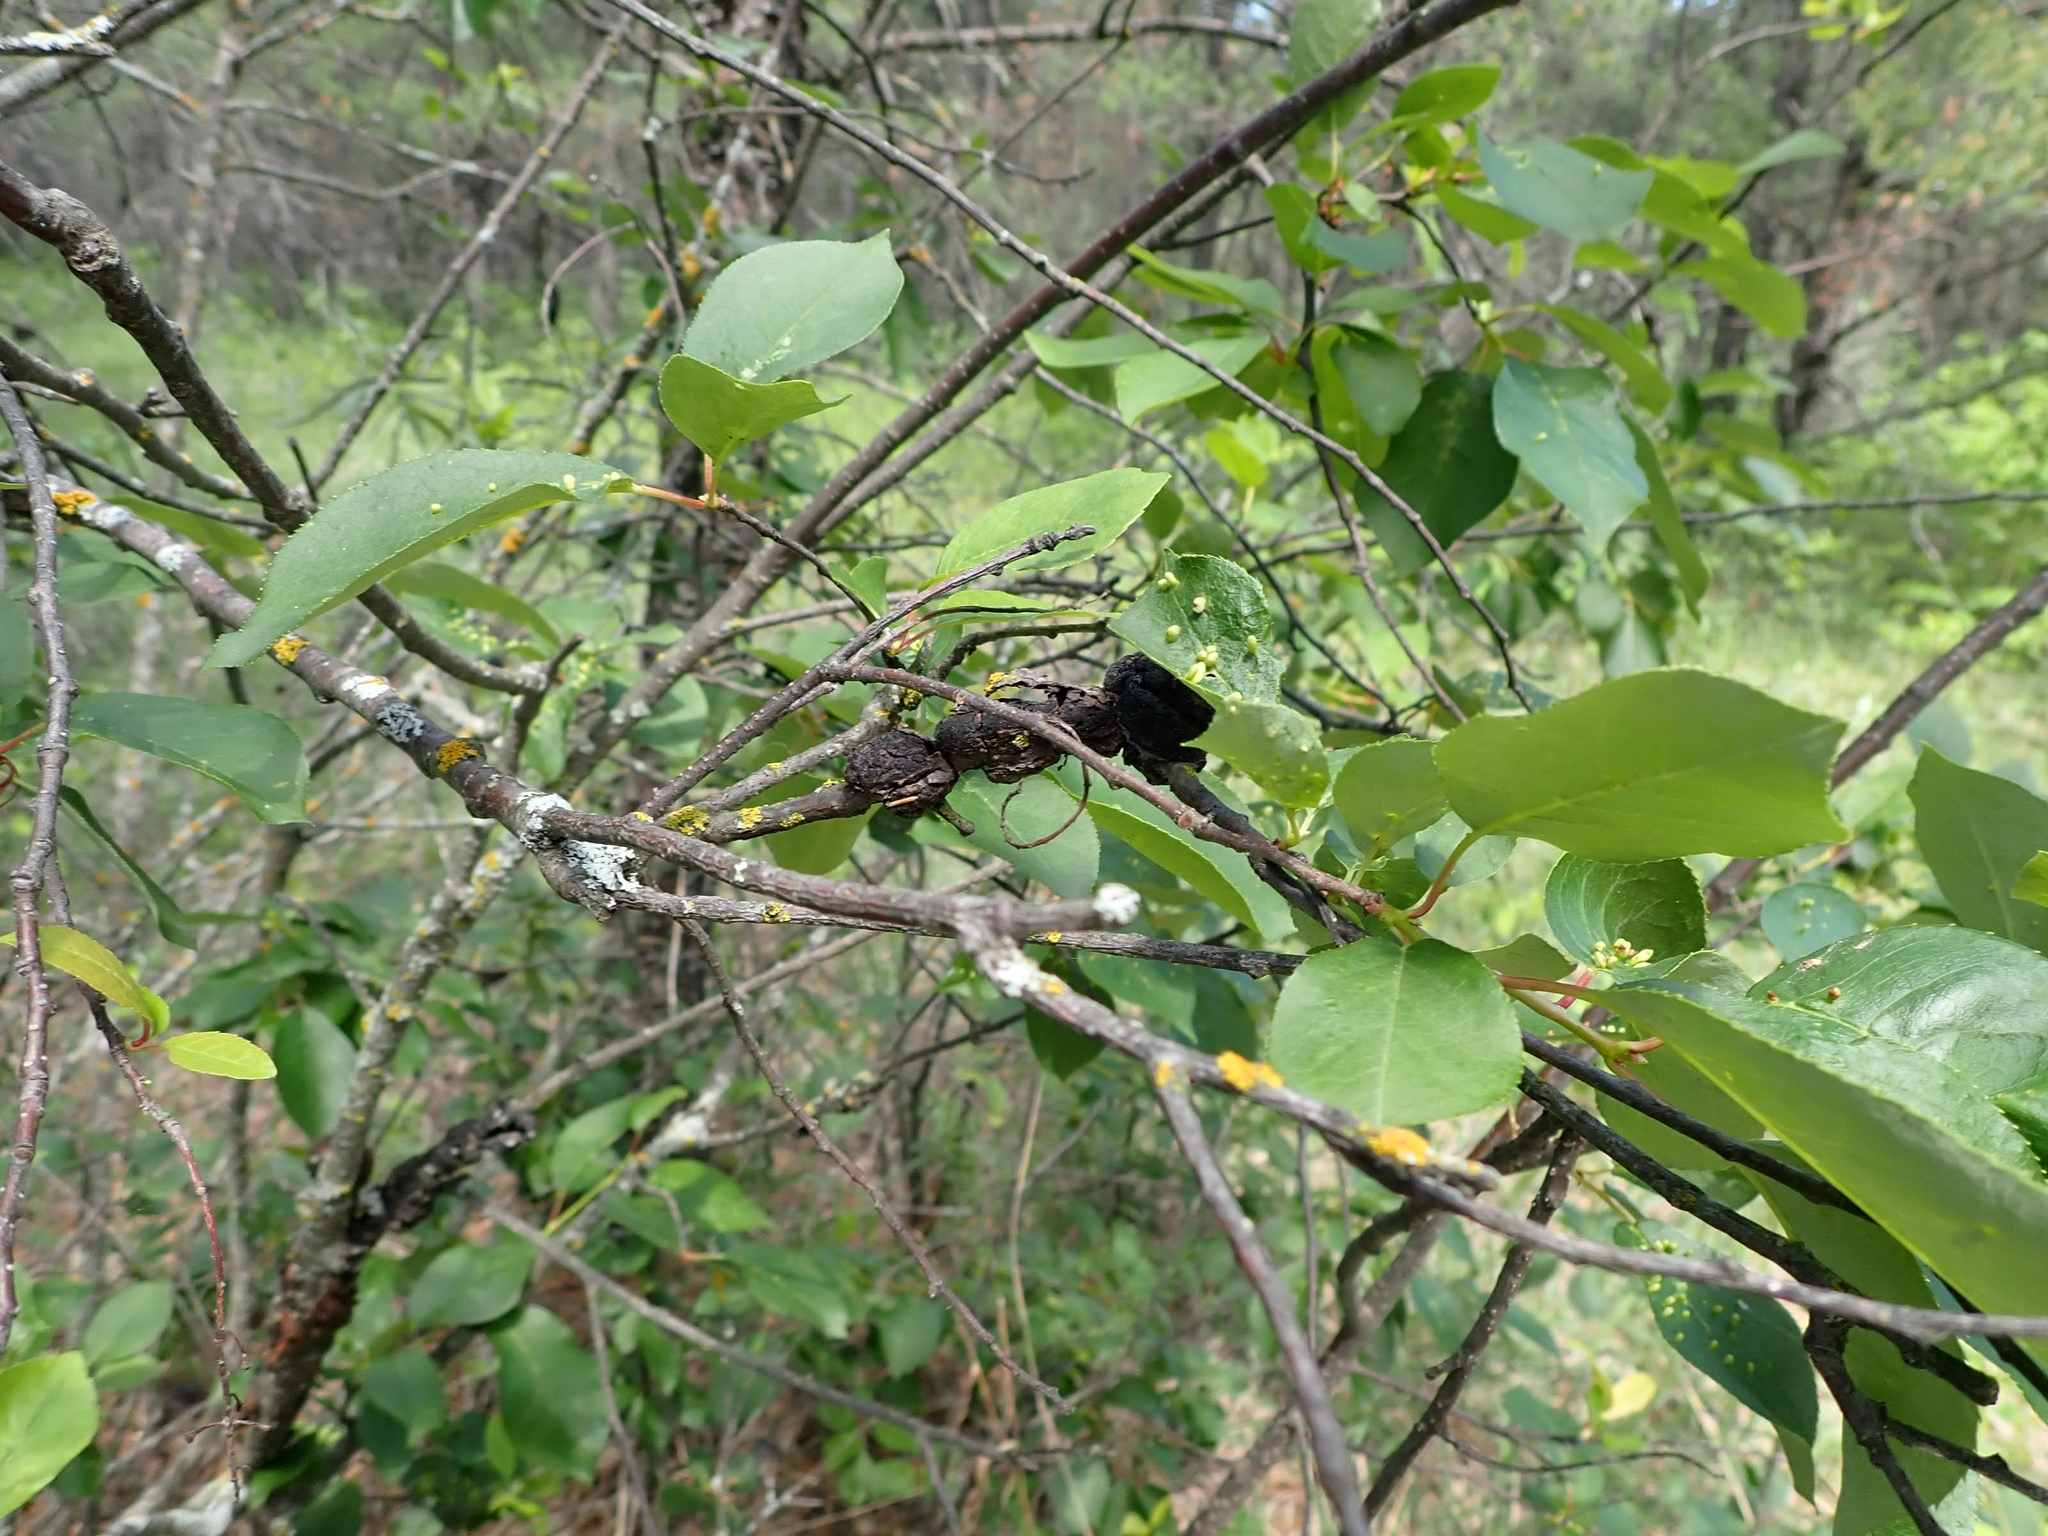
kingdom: Fungi
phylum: Ascomycota
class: Dothideomycetes
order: Venturiales
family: Venturiaceae
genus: Apiosporina
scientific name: Apiosporina morbosa
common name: Black knot
